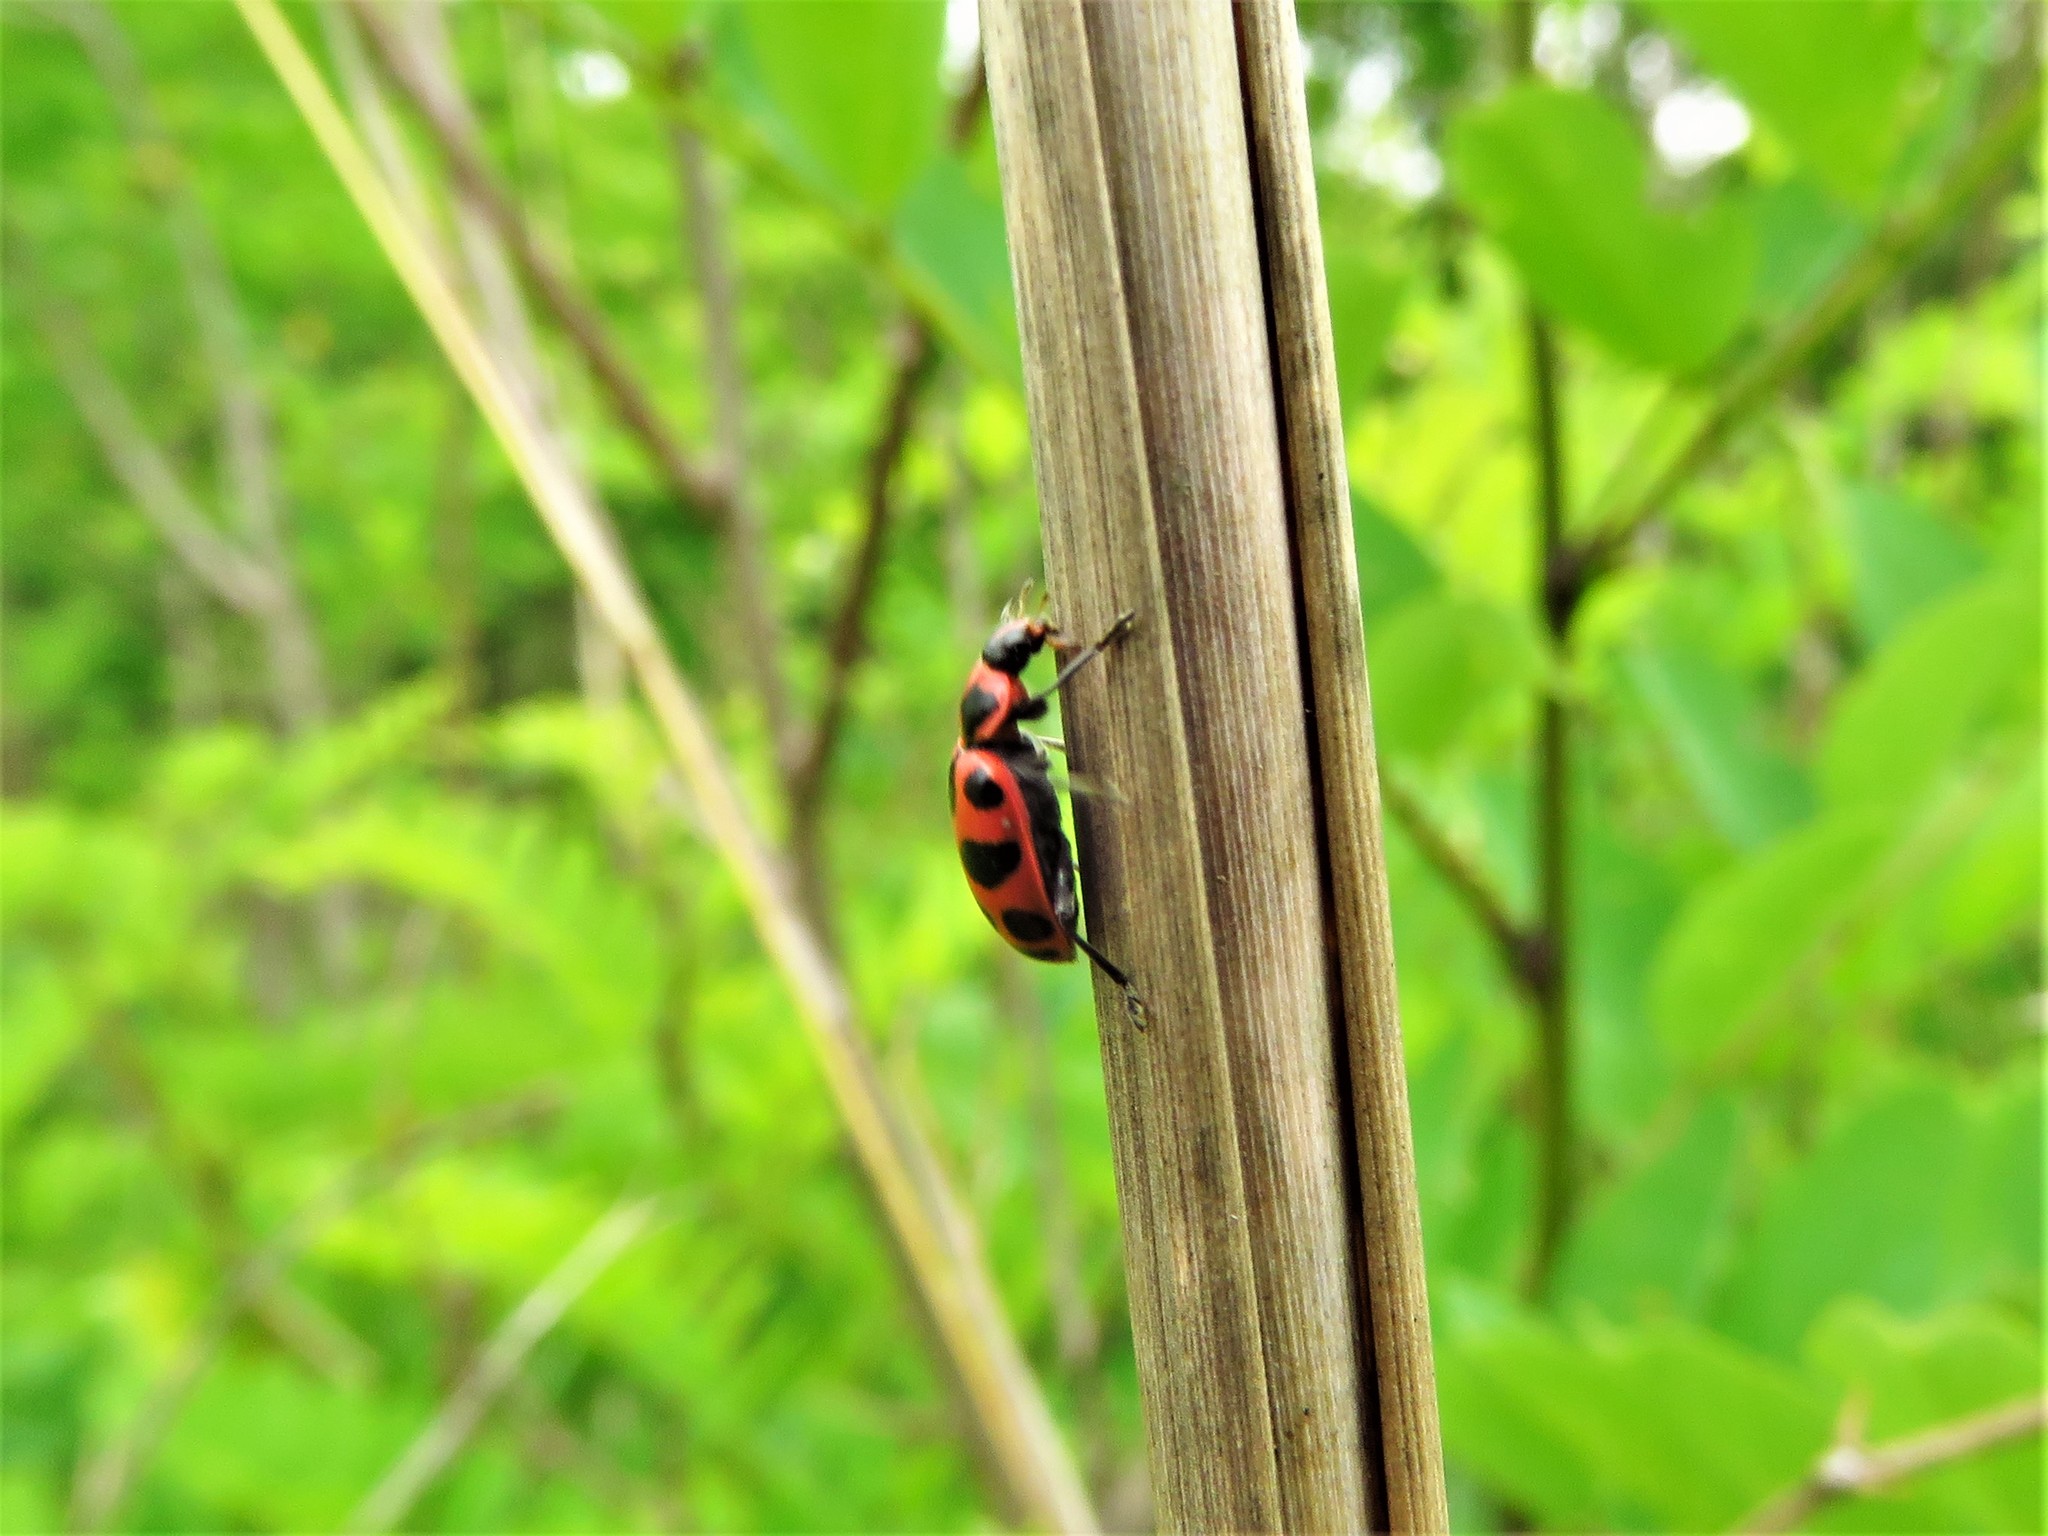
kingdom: Animalia
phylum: Arthropoda
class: Insecta
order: Coleoptera
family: Coccinellidae
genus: Coleomegilla
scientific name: Coleomegilla maculata
